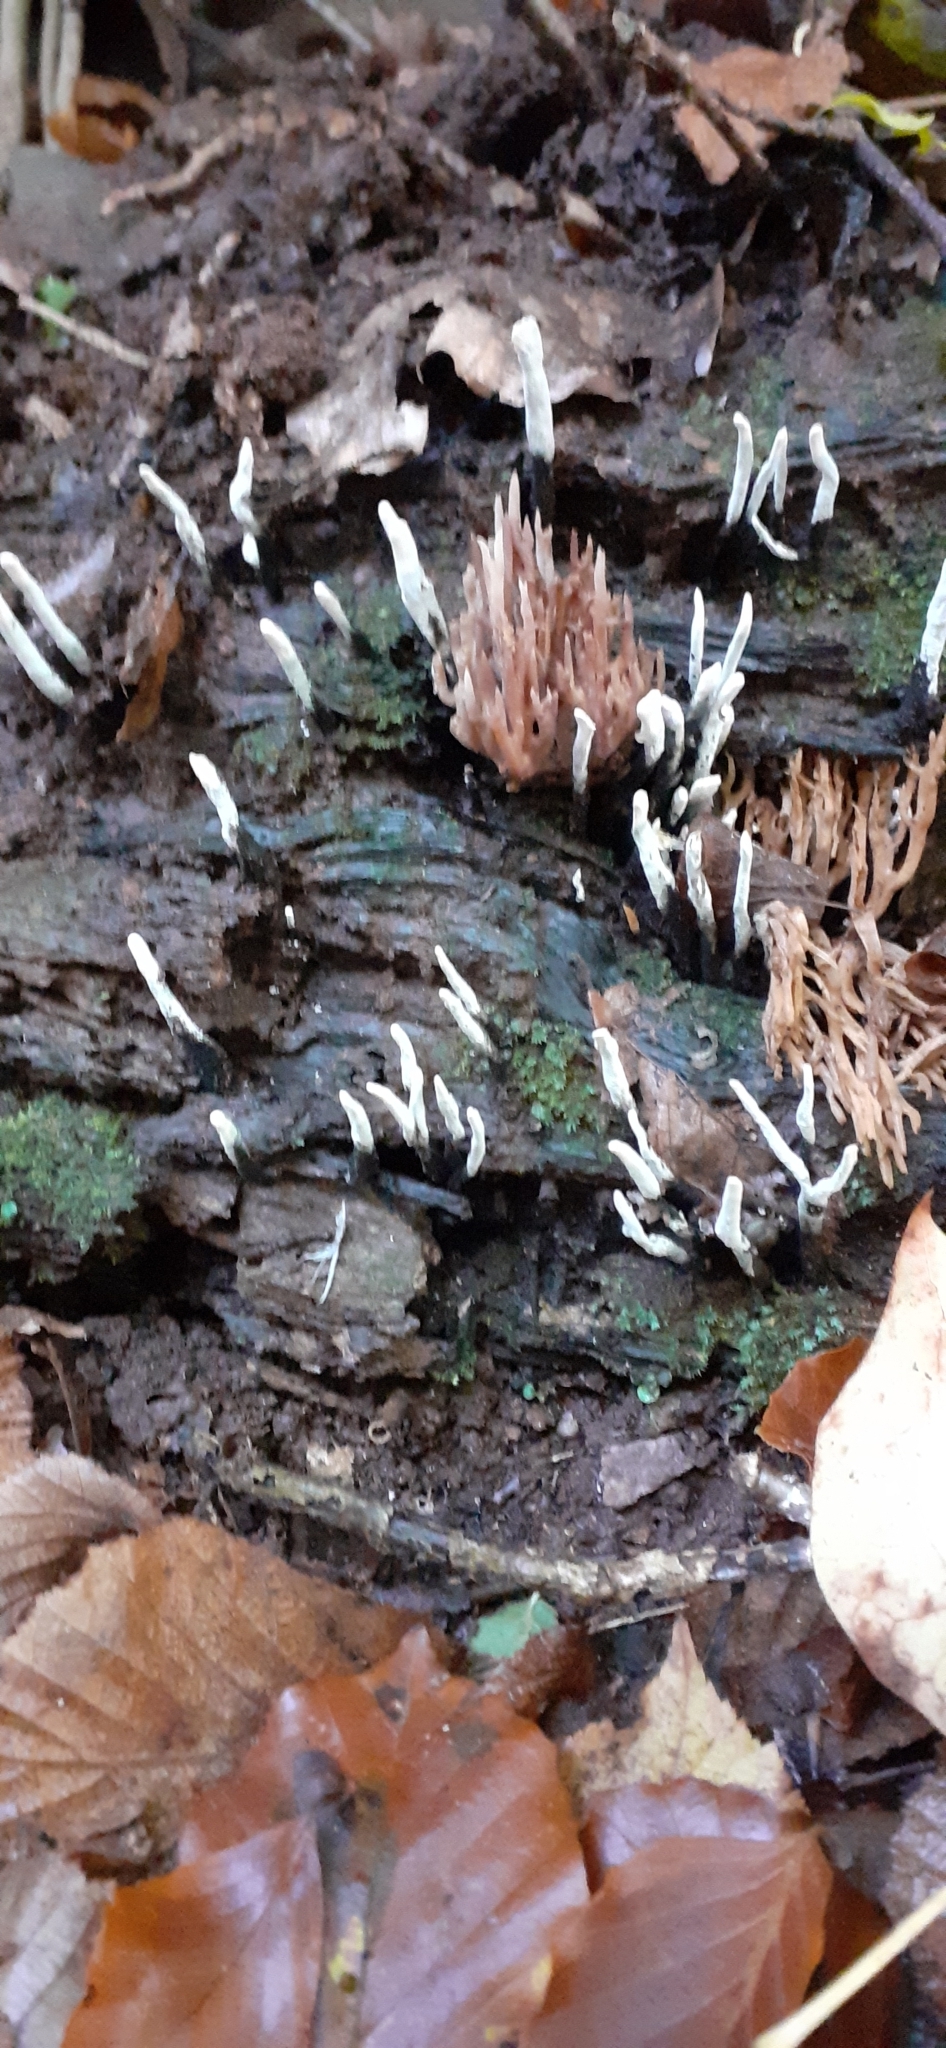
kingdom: Fungi
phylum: Ascomycota
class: Sordariomycetes
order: Xylariales
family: Xylariaceae
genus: Xylaria
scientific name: Xylaria hypoxylon
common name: Candle-snuff fungus
